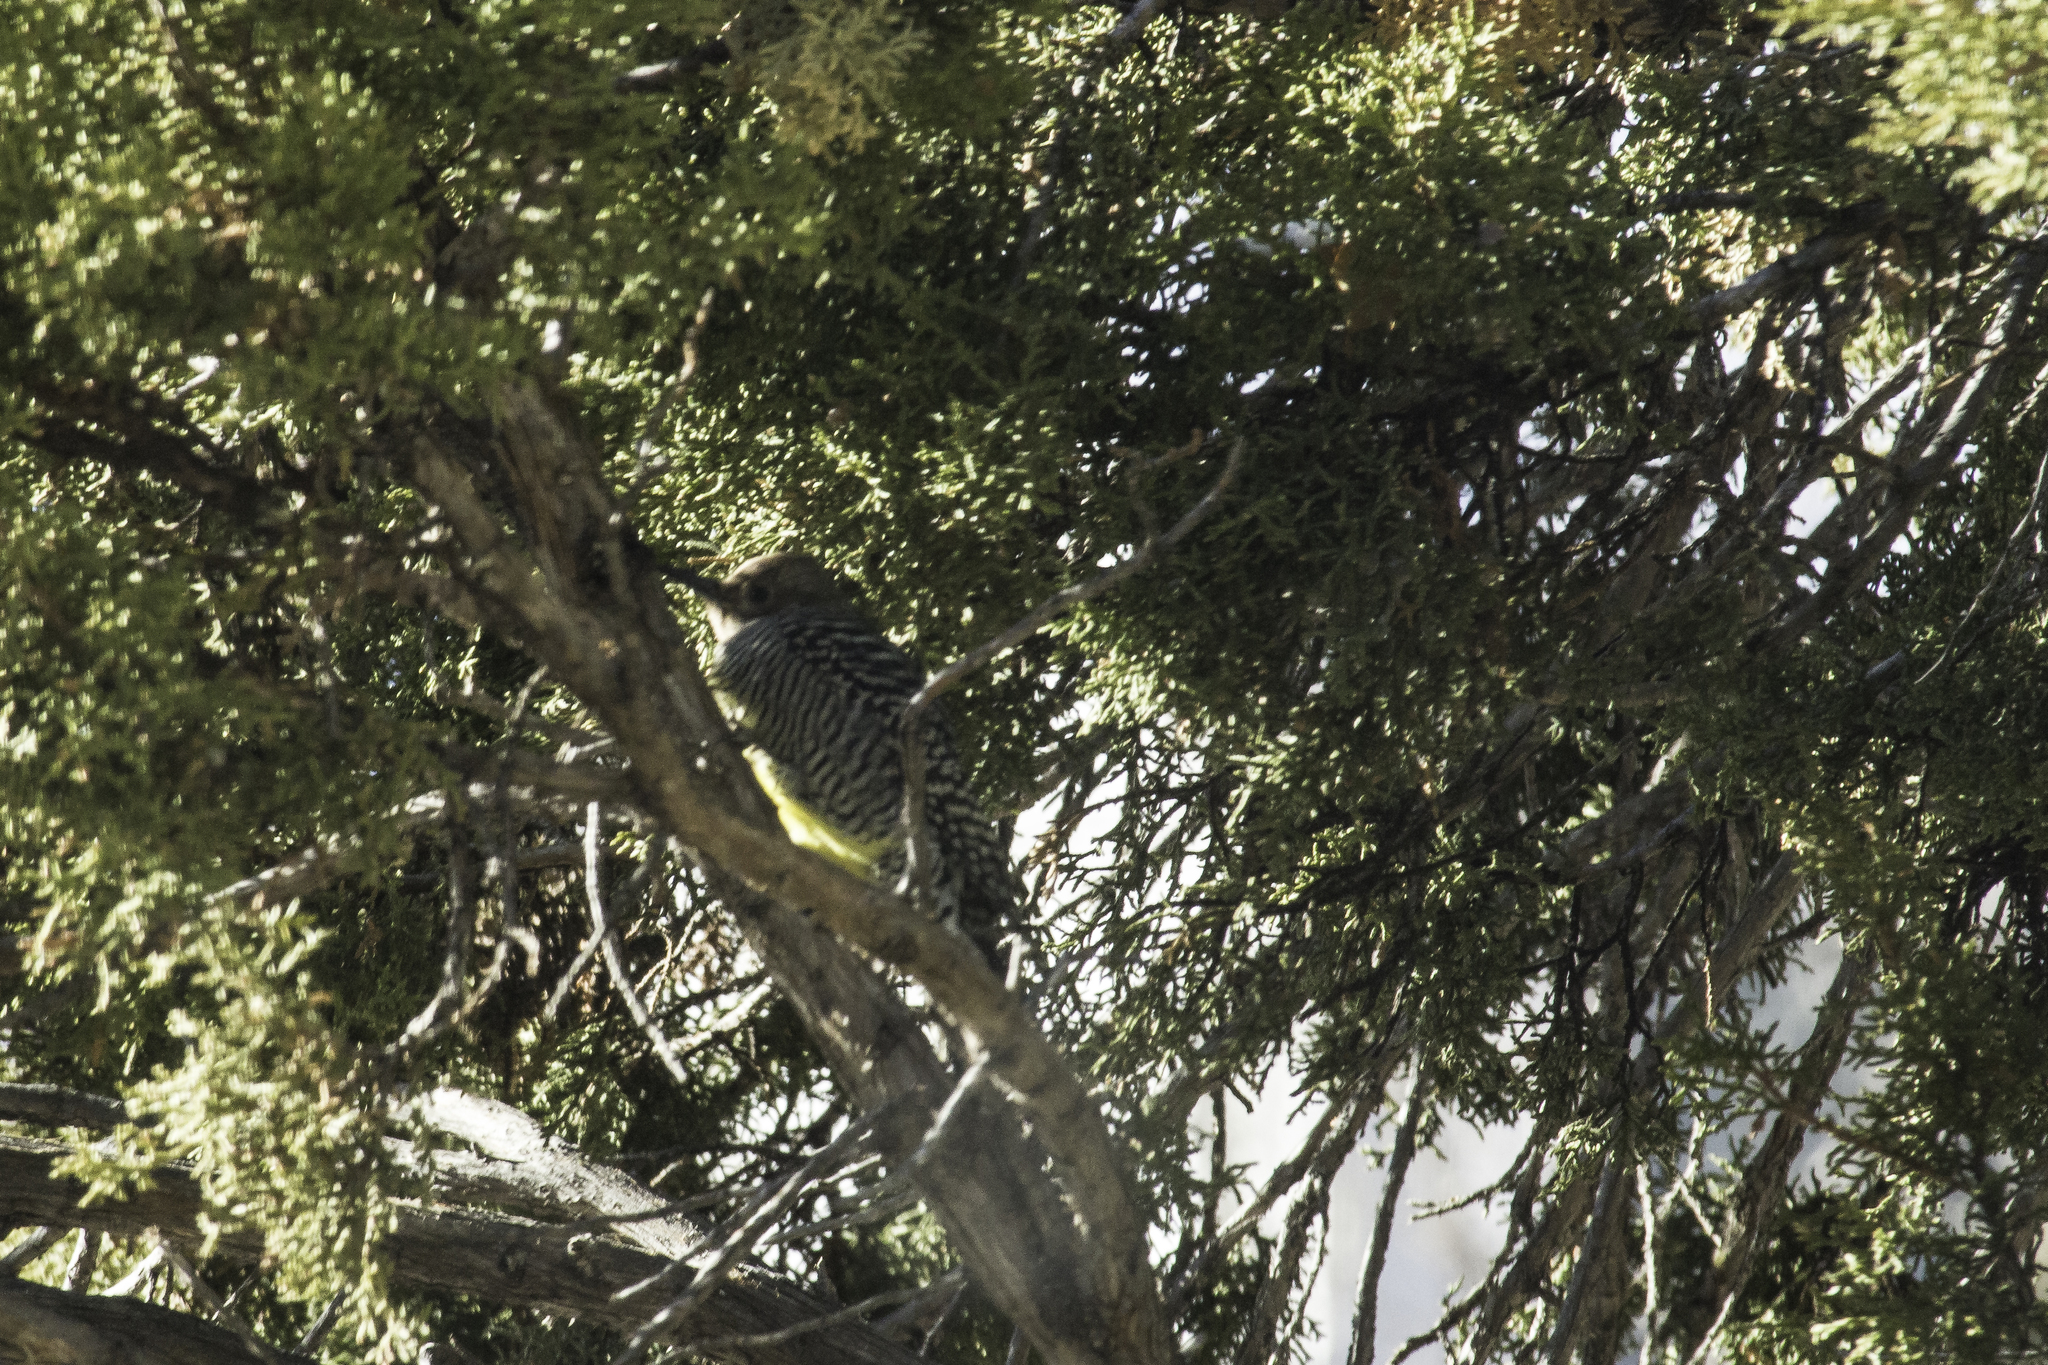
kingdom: Animalia
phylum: Chordata
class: Aves
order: Piciformes
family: Picidae
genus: Sphyrapicus
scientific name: Sphyrapicus thyroideus
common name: Williamson's sapsucker
